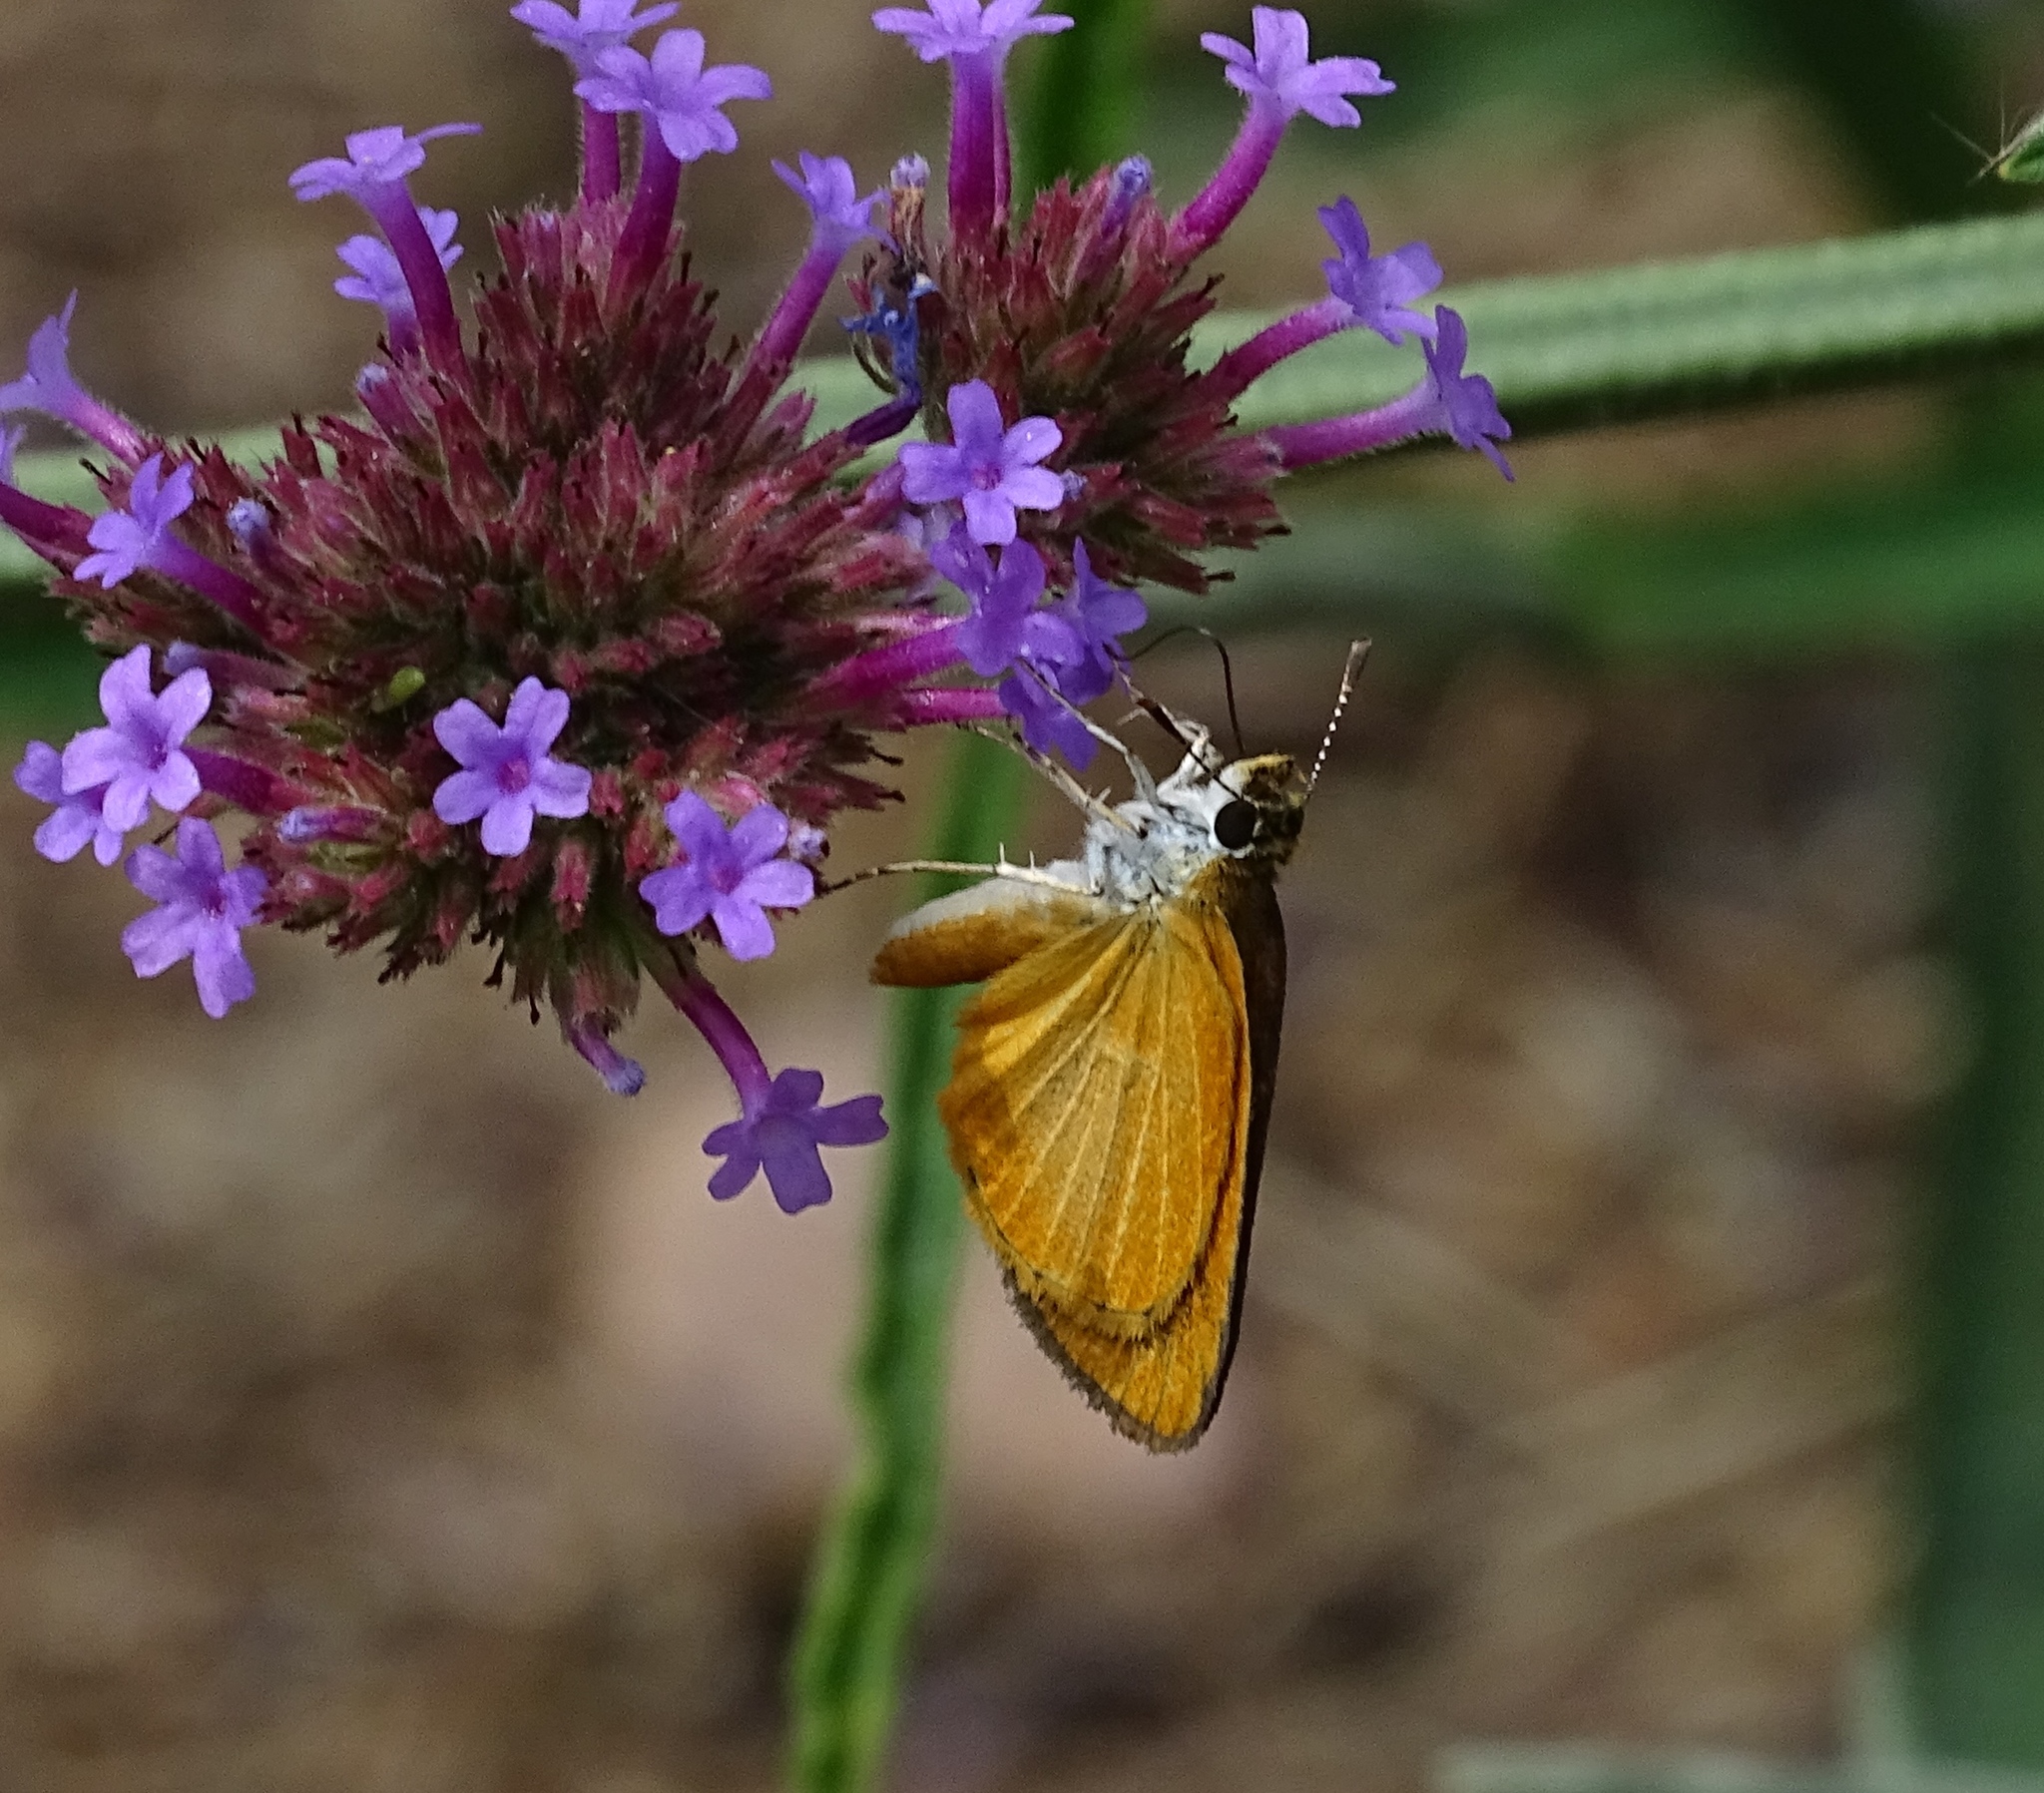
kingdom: Animalia
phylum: Arthropoda
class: Insecta
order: Lepidoptera
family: Hesperiidae
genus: Ancyloxypha
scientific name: Ancyloxypha numitor
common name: Least skipper
